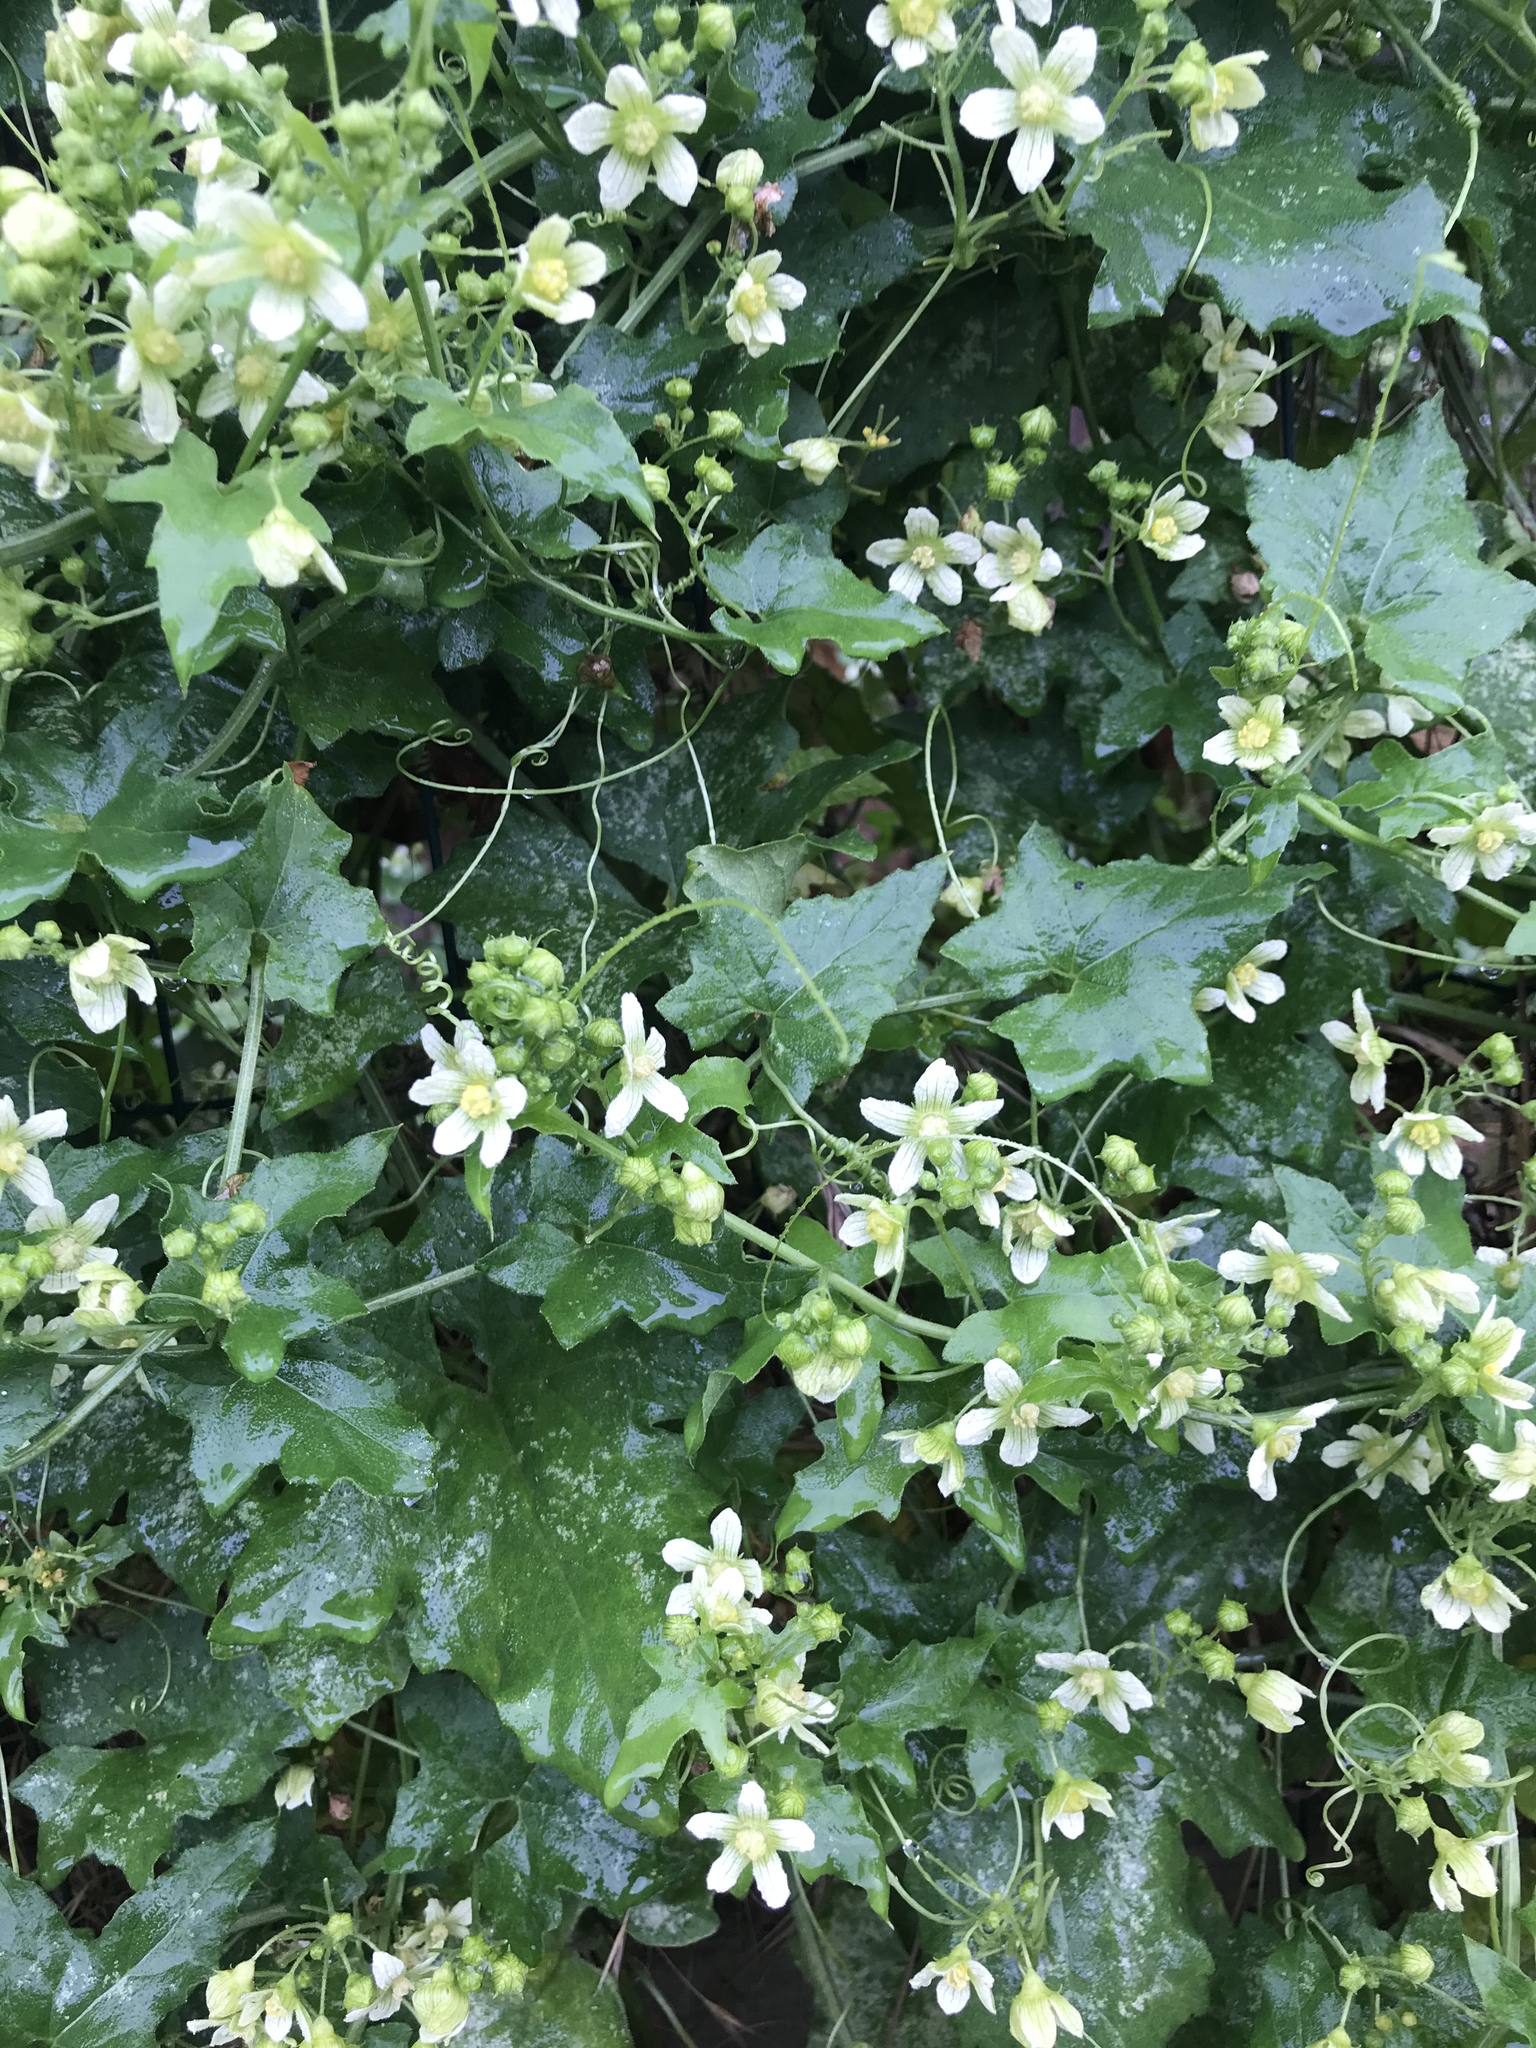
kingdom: Plantae
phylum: Tracheophyta
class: Magnoliopsida
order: Cucurbitales
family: Cucurbitaceae
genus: Bryonia
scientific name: Bryonia cretica
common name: Cretan bryony
